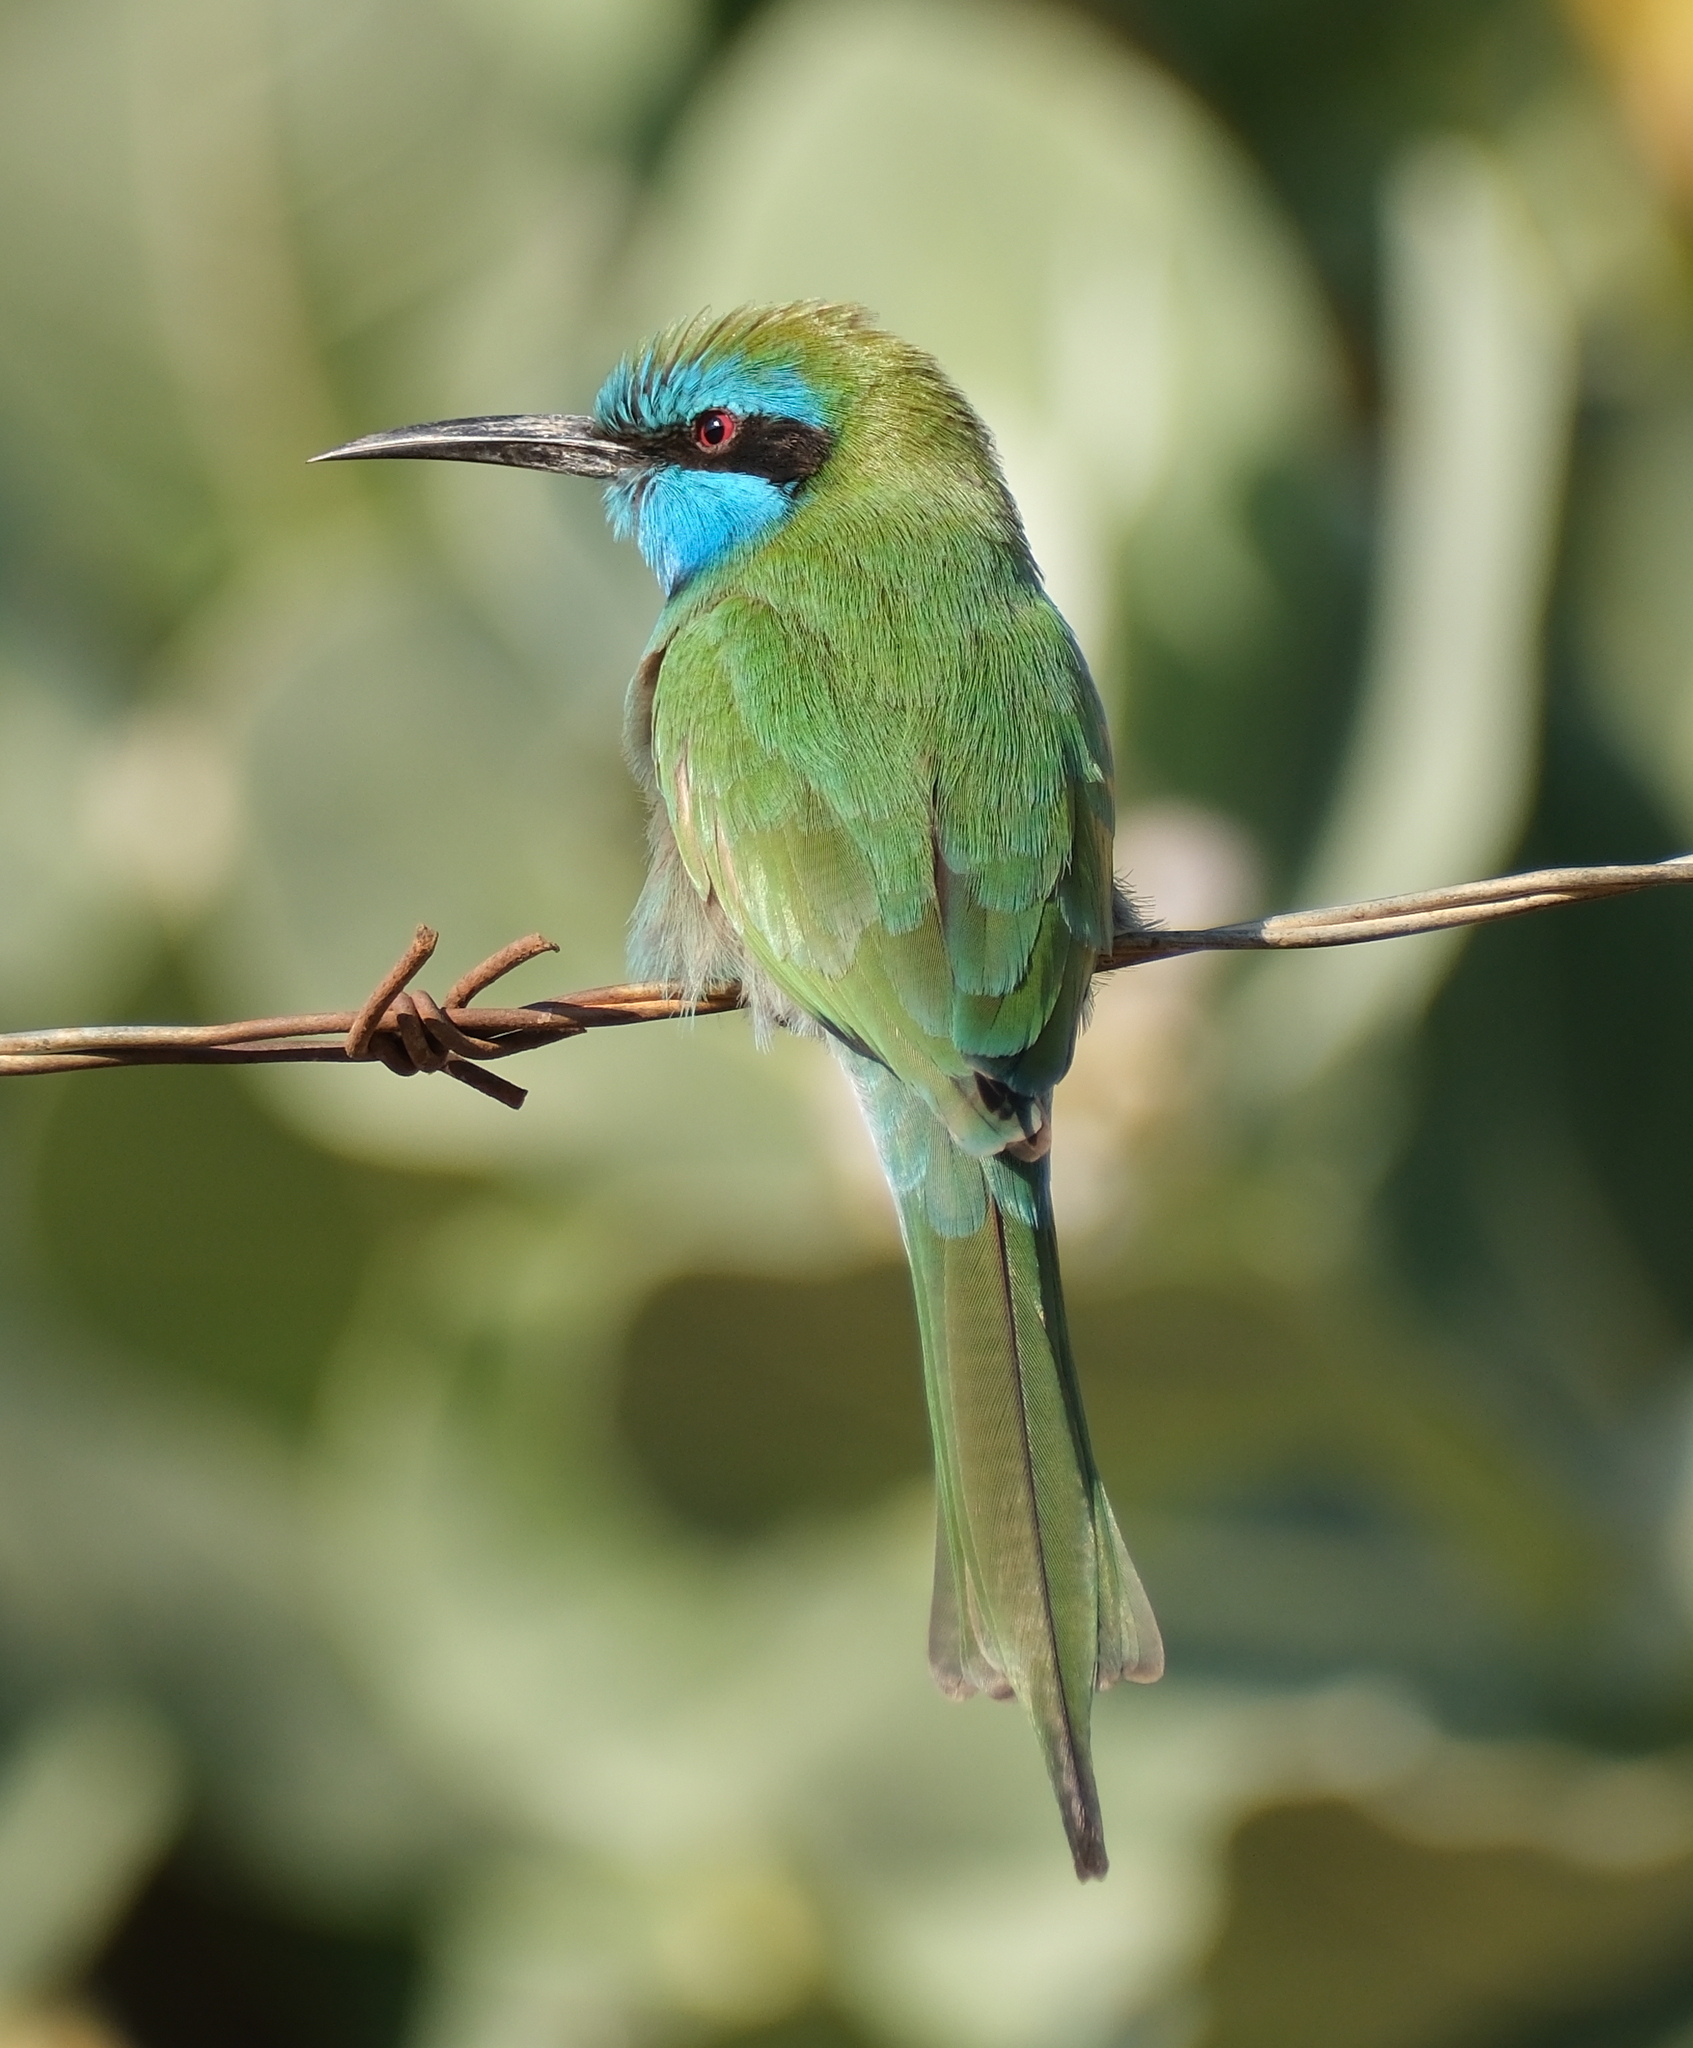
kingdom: Animalia
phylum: Chordata
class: Aves
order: Coraciiformes
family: Meropidae
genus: Merops
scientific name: Merops cyanophrys
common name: Arabian green bee-eater
